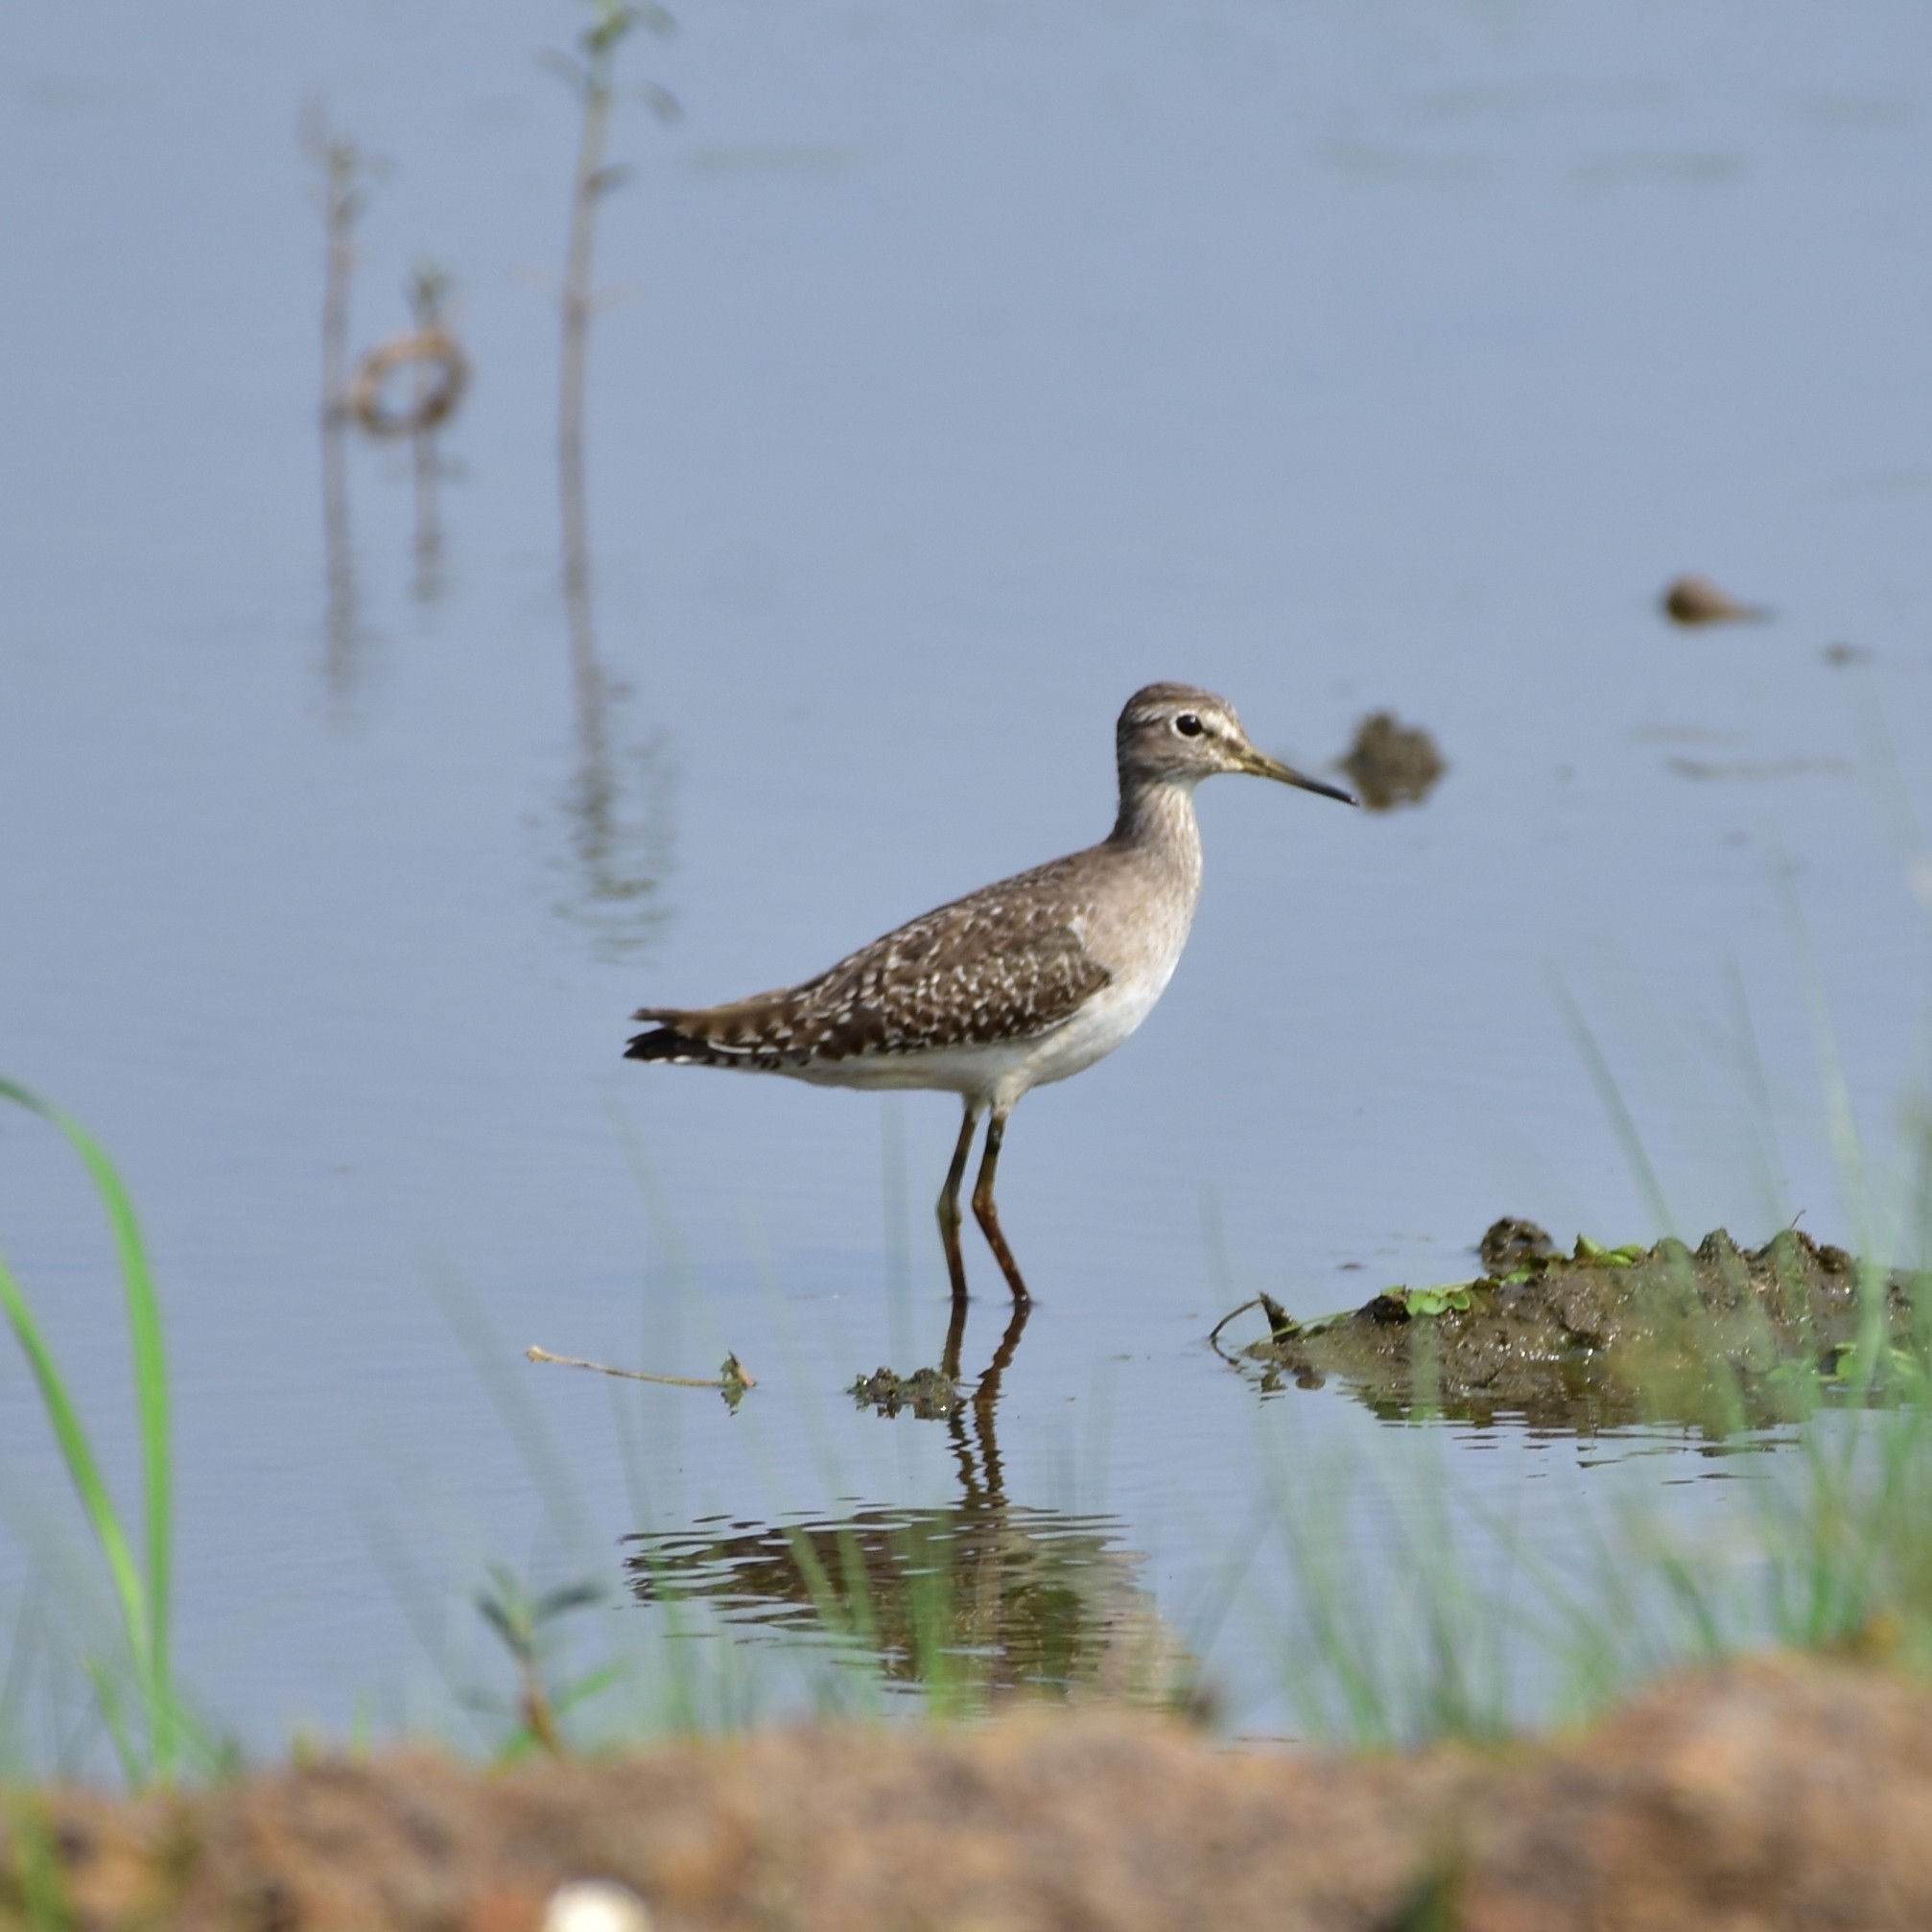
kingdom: Animalia
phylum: Chordata
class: Aves
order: Charadriiformes
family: Scolopacidae
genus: Tringa
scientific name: Tringa glareola
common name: Wood sandpiper
